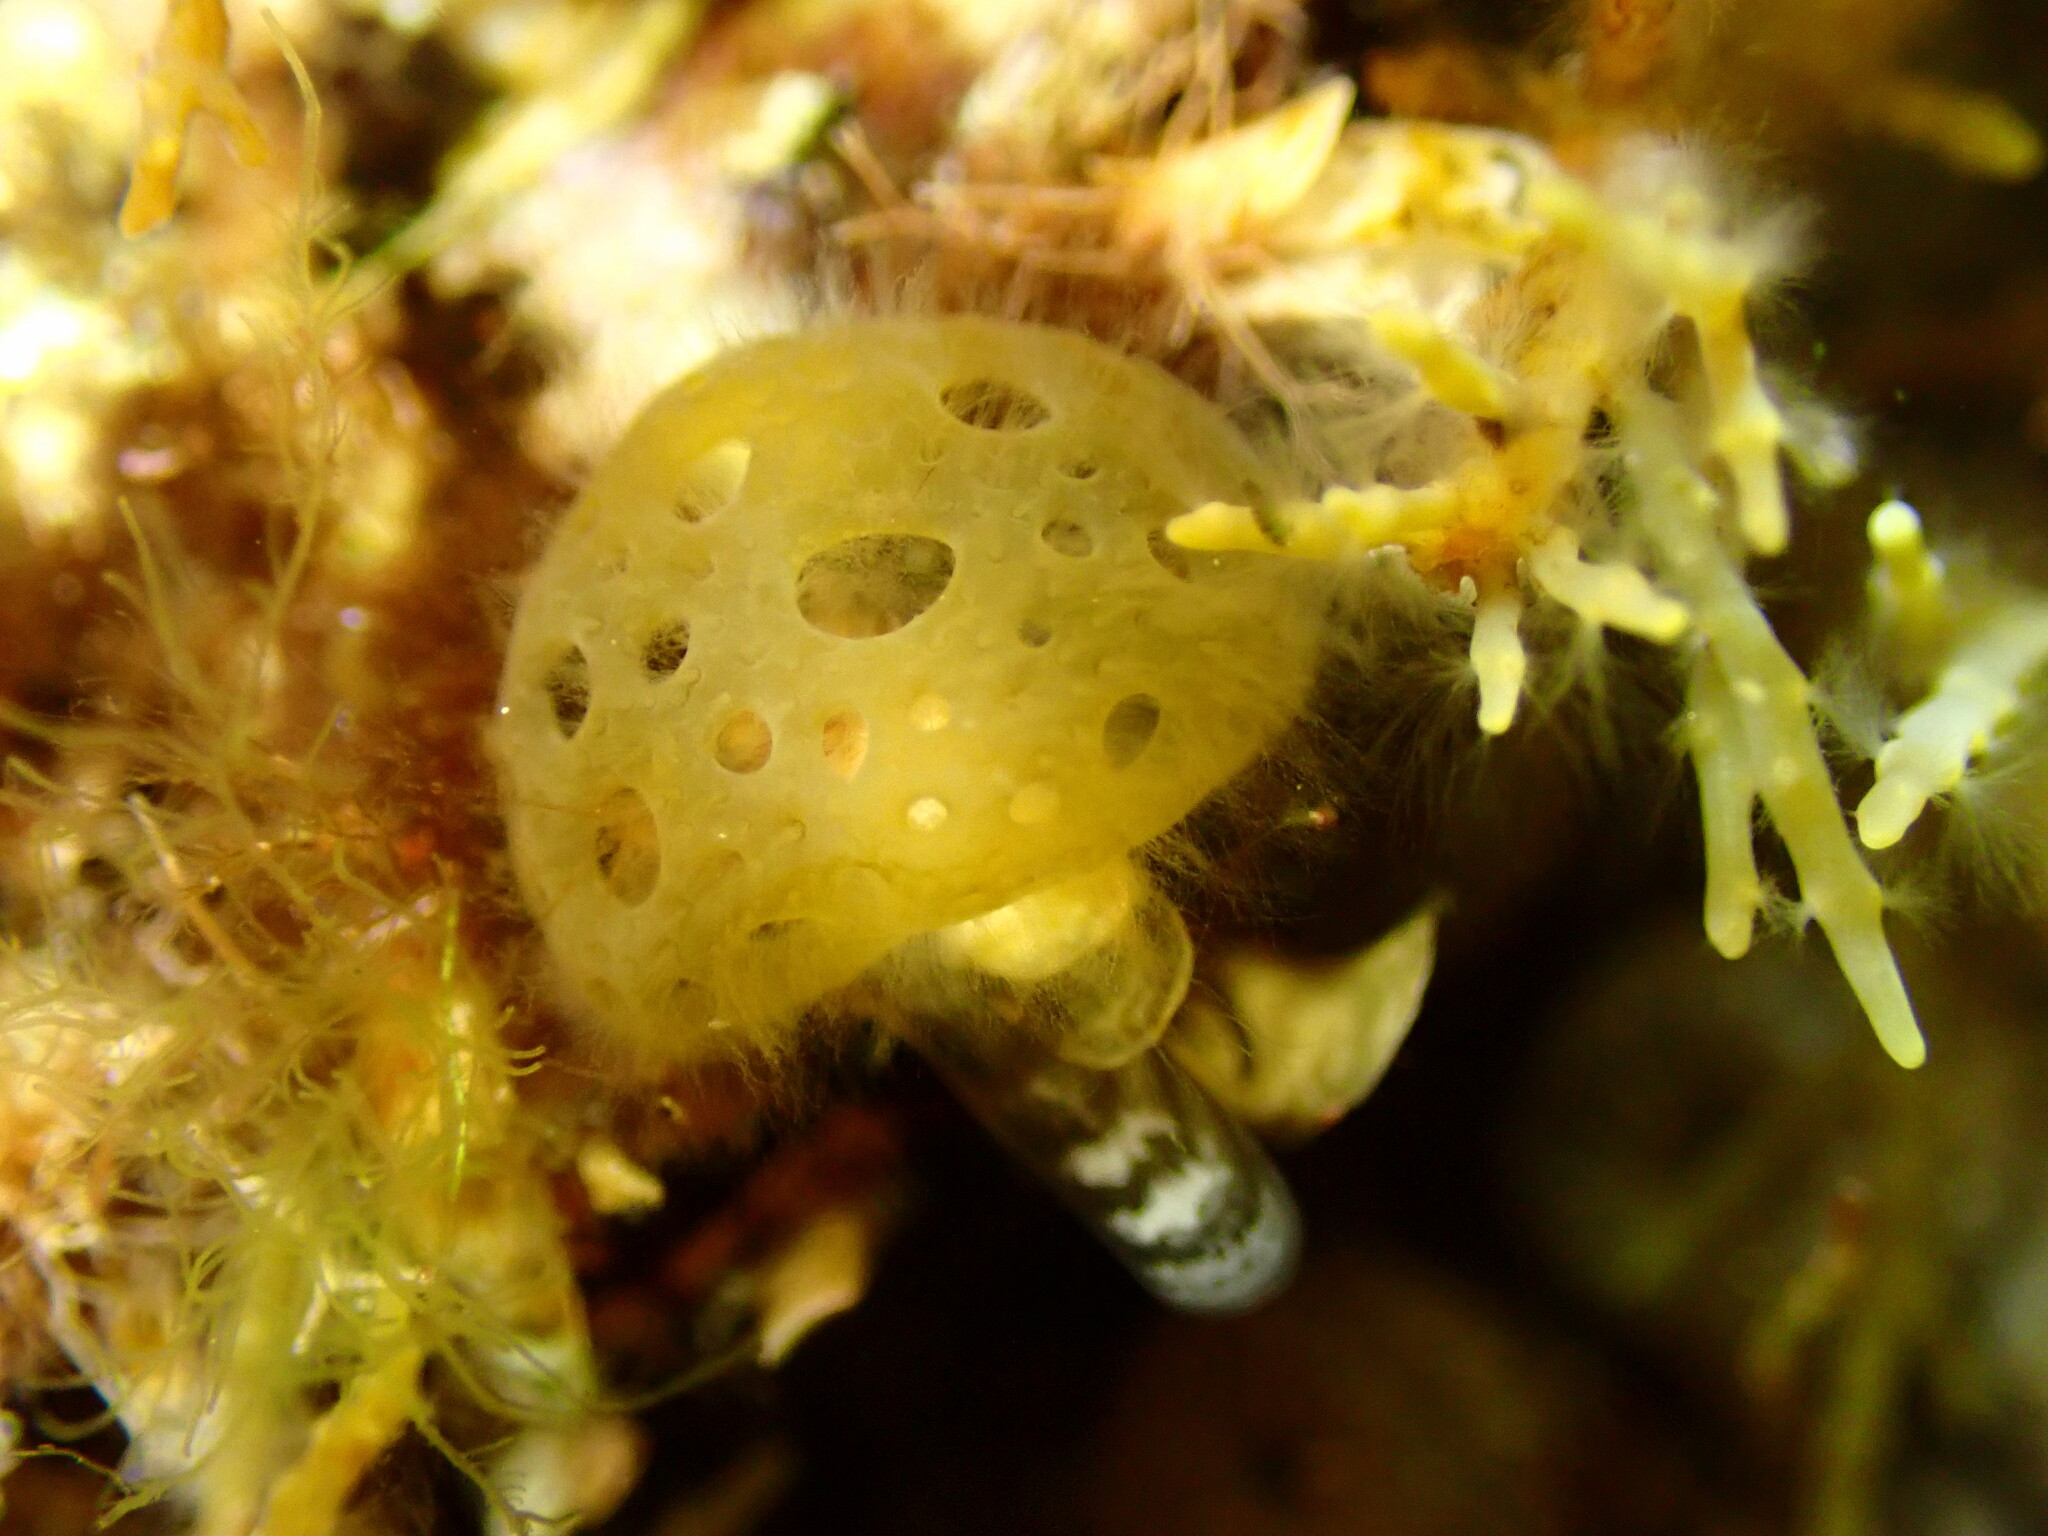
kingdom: Chromista
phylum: Ochrophyta
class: Phaeophyceae
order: Scytosiphonales
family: Scytosiphonaceae
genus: Hydroclathrus
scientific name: Hydroclathrus clathratus
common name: Swiss cheese algae
